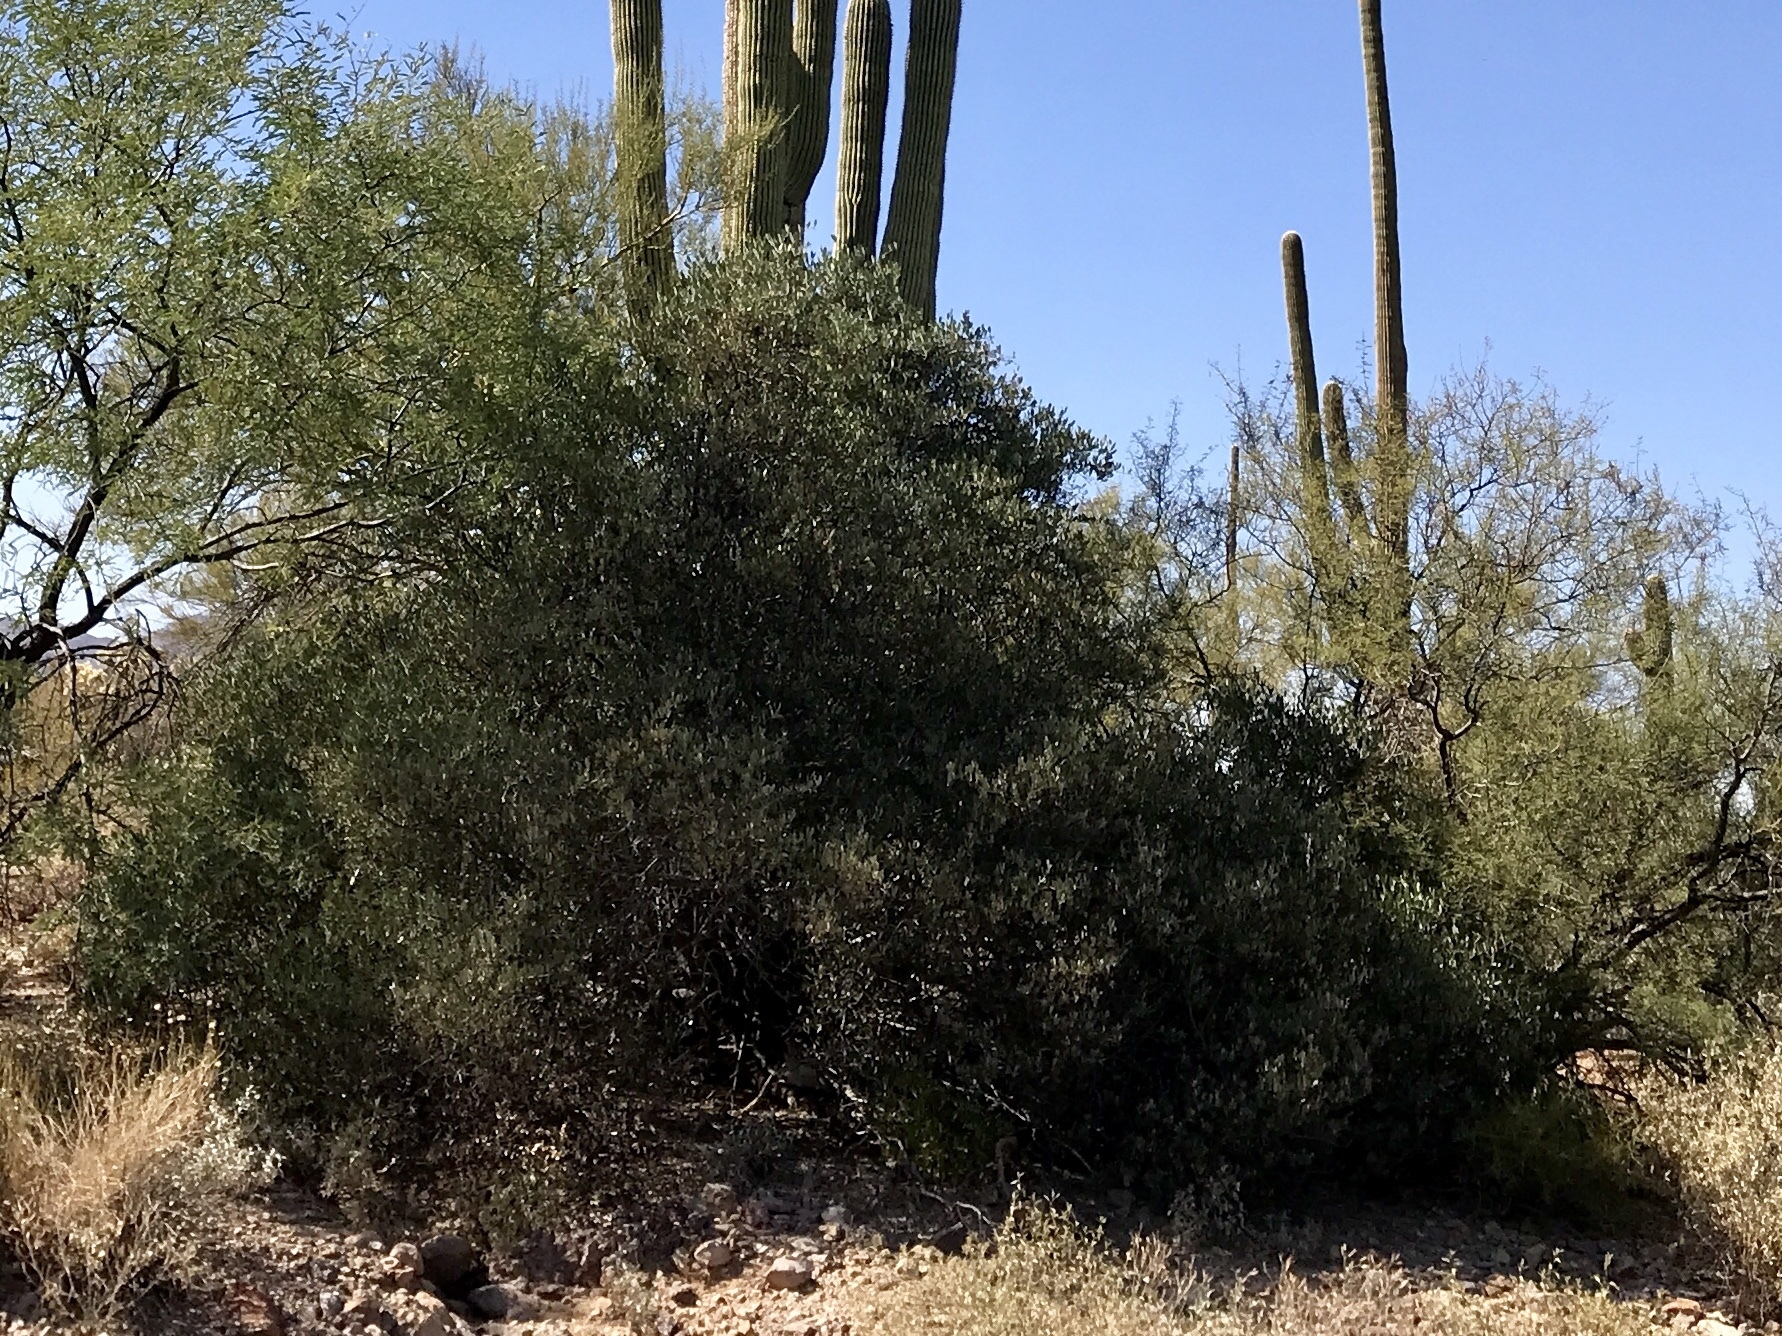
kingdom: Plantae
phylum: Tracheophyta
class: Magnoliopsida
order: Rosales
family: Cannabaceae
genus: Celtis
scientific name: Celtis pallida
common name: Desert hackberry
